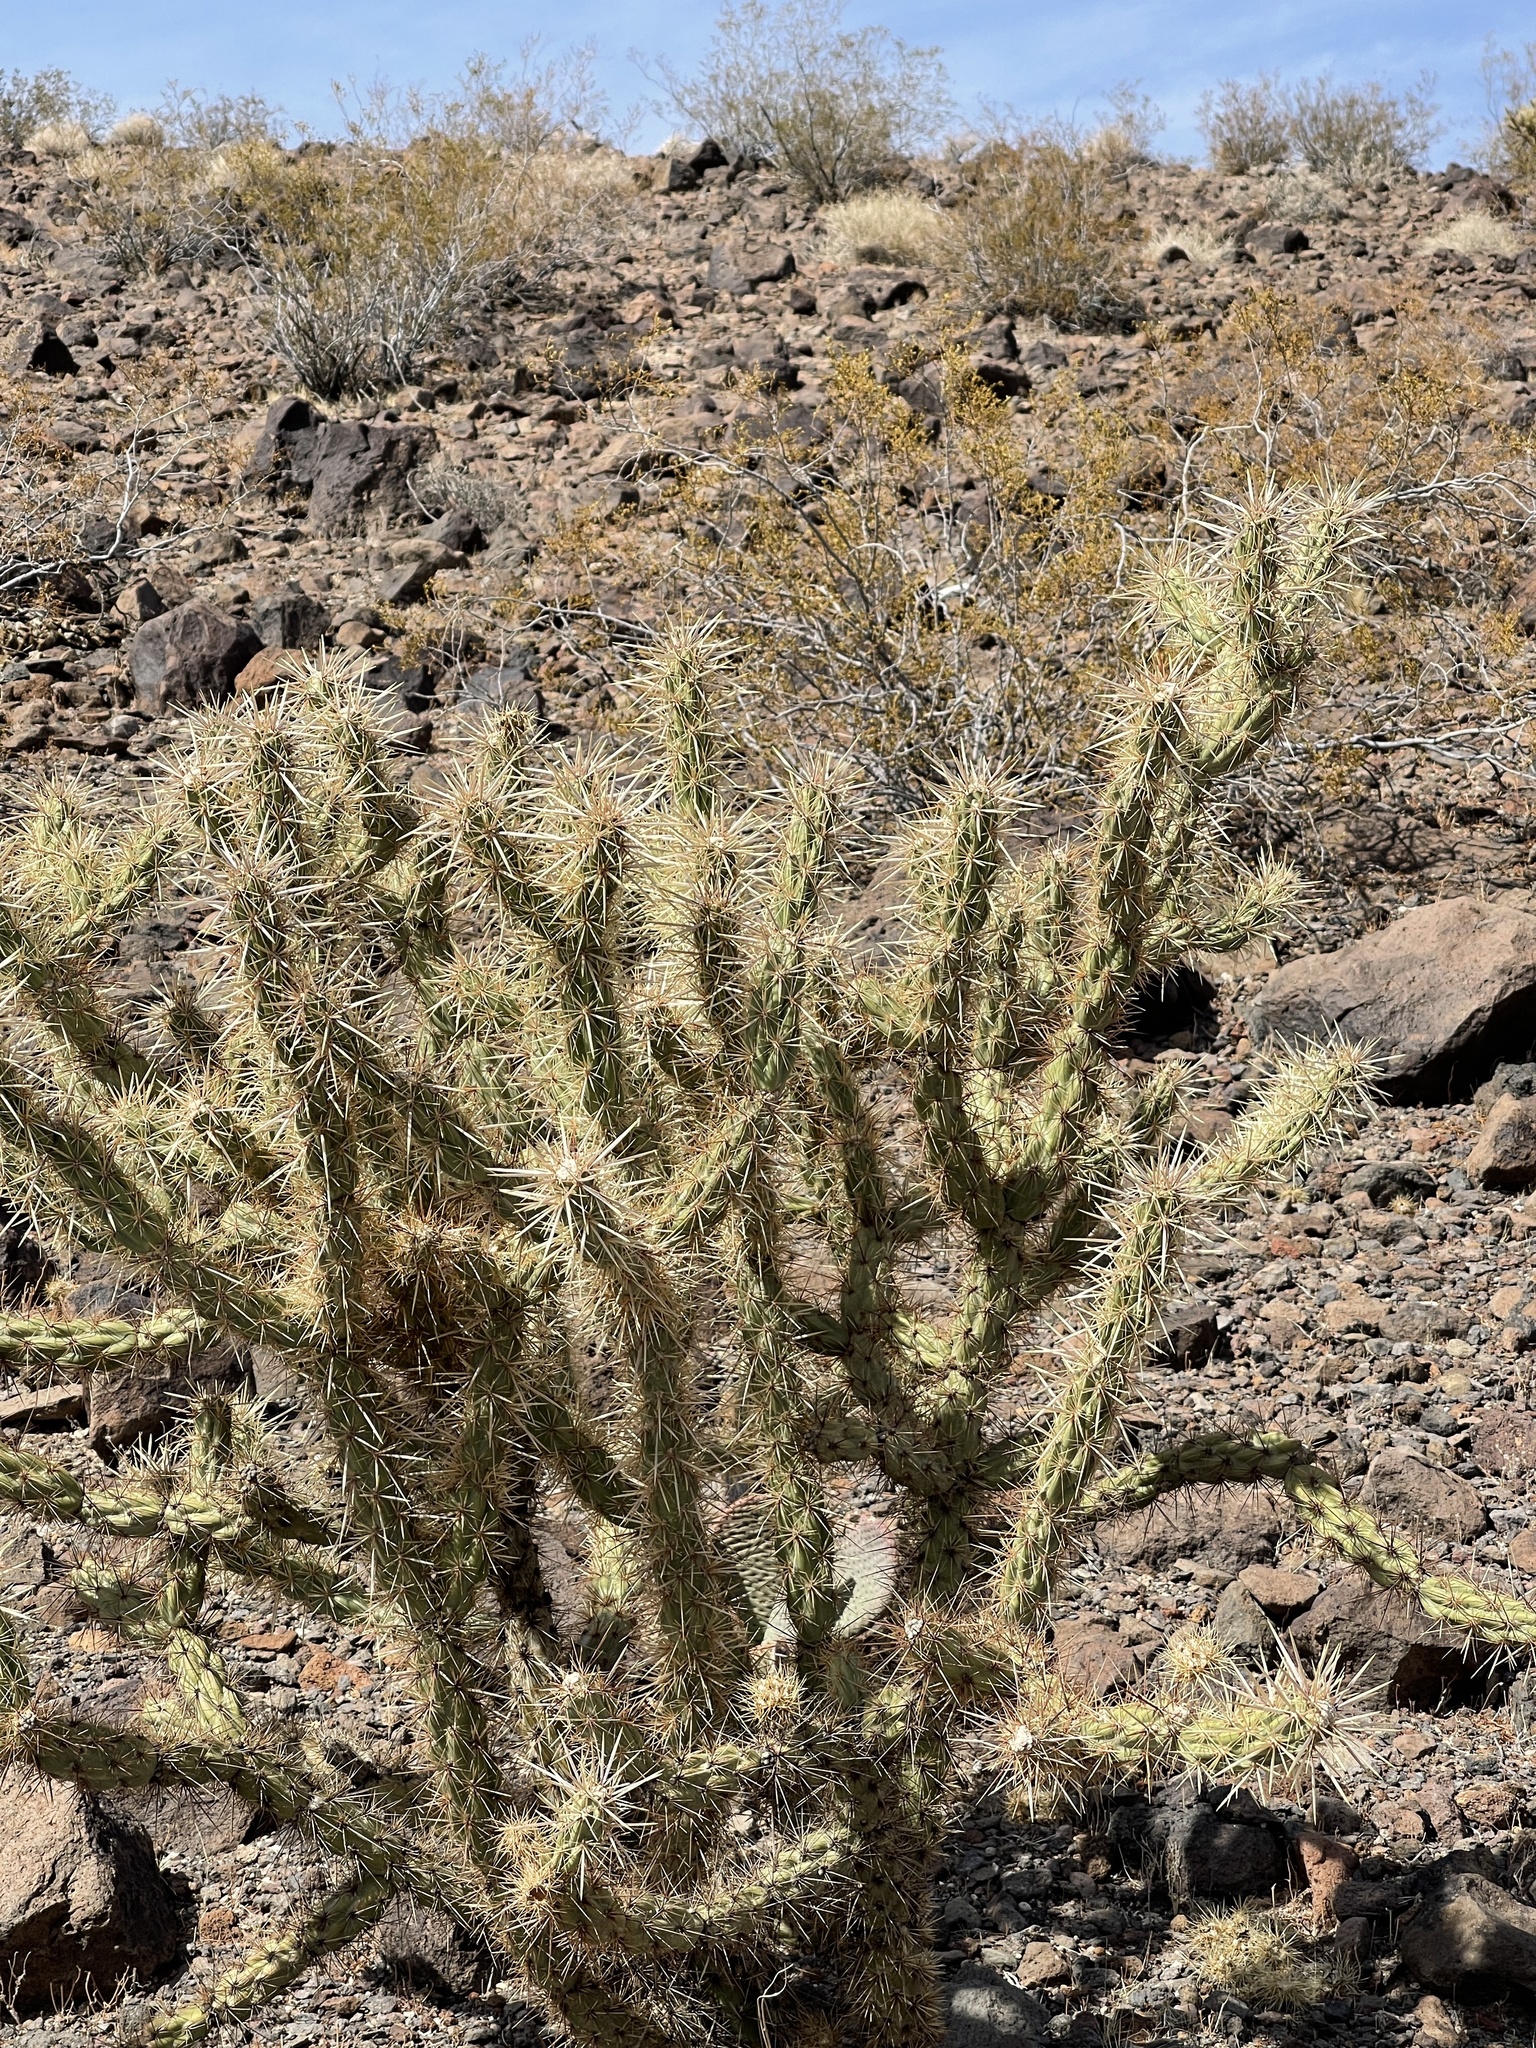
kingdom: Plantae
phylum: Tracheophyta
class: Magnoliopsida
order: Caryophyllales
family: Cactaceae
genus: Cylindropuntia
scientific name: Cylindropuntia acanthocarpa
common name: Buckhorn cholla
